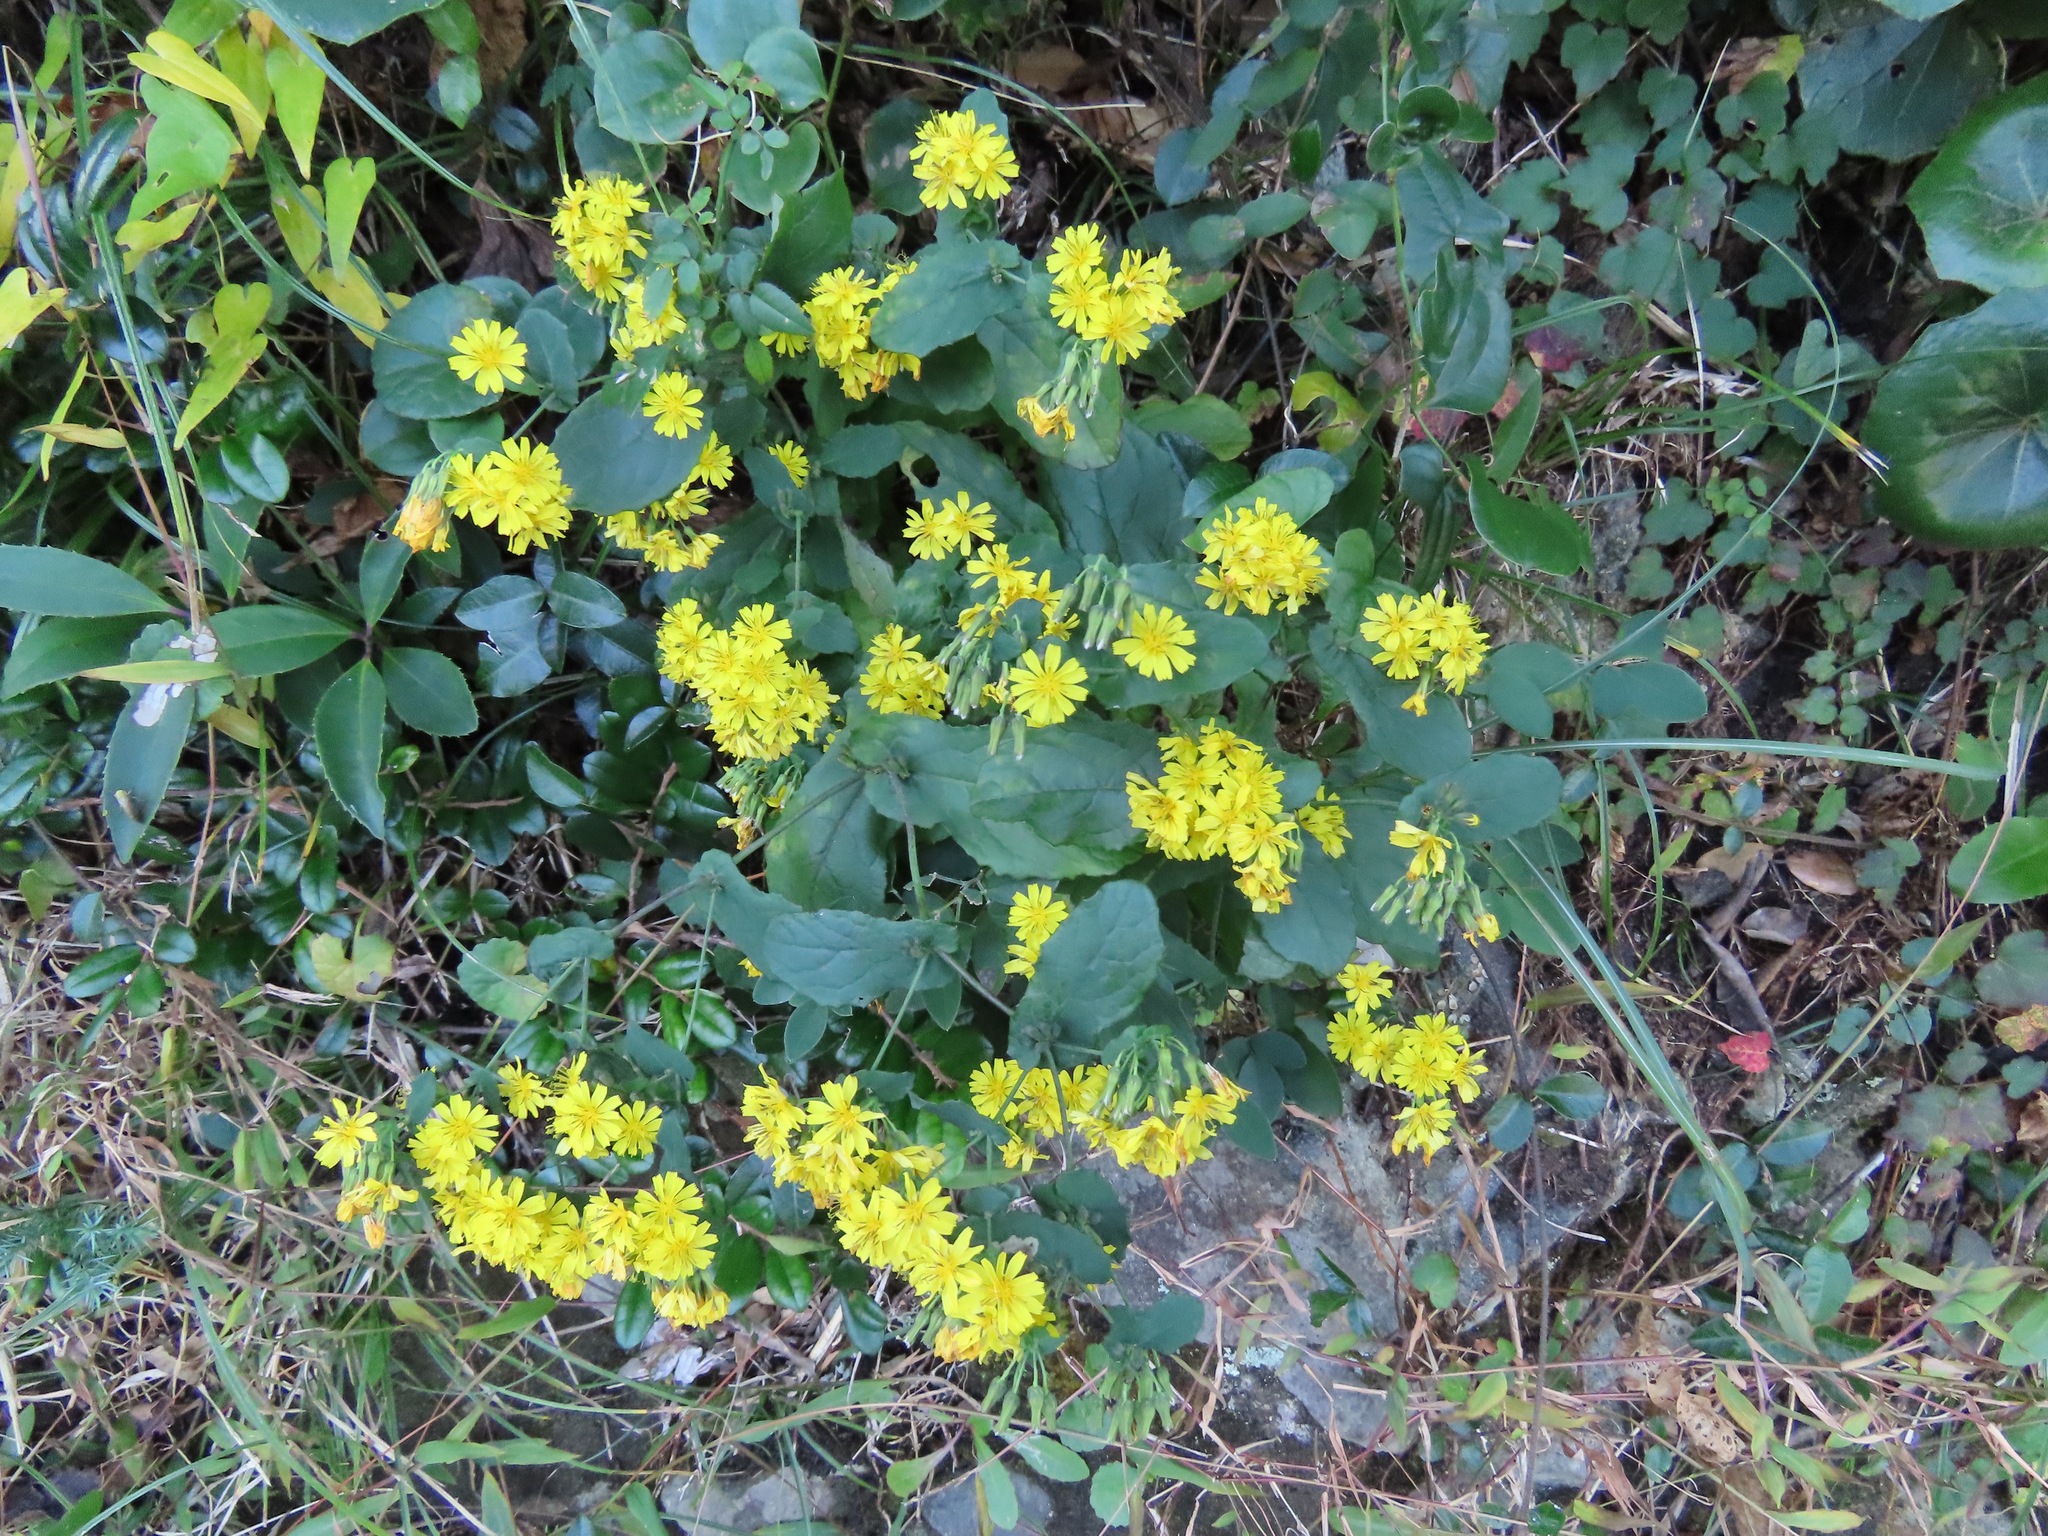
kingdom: Plantae
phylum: Tracheophyta
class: Magnoliopsida
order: Asterales
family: Asteraceae
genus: Crepidiastrum
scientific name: Crepidiastrum denticulatum
